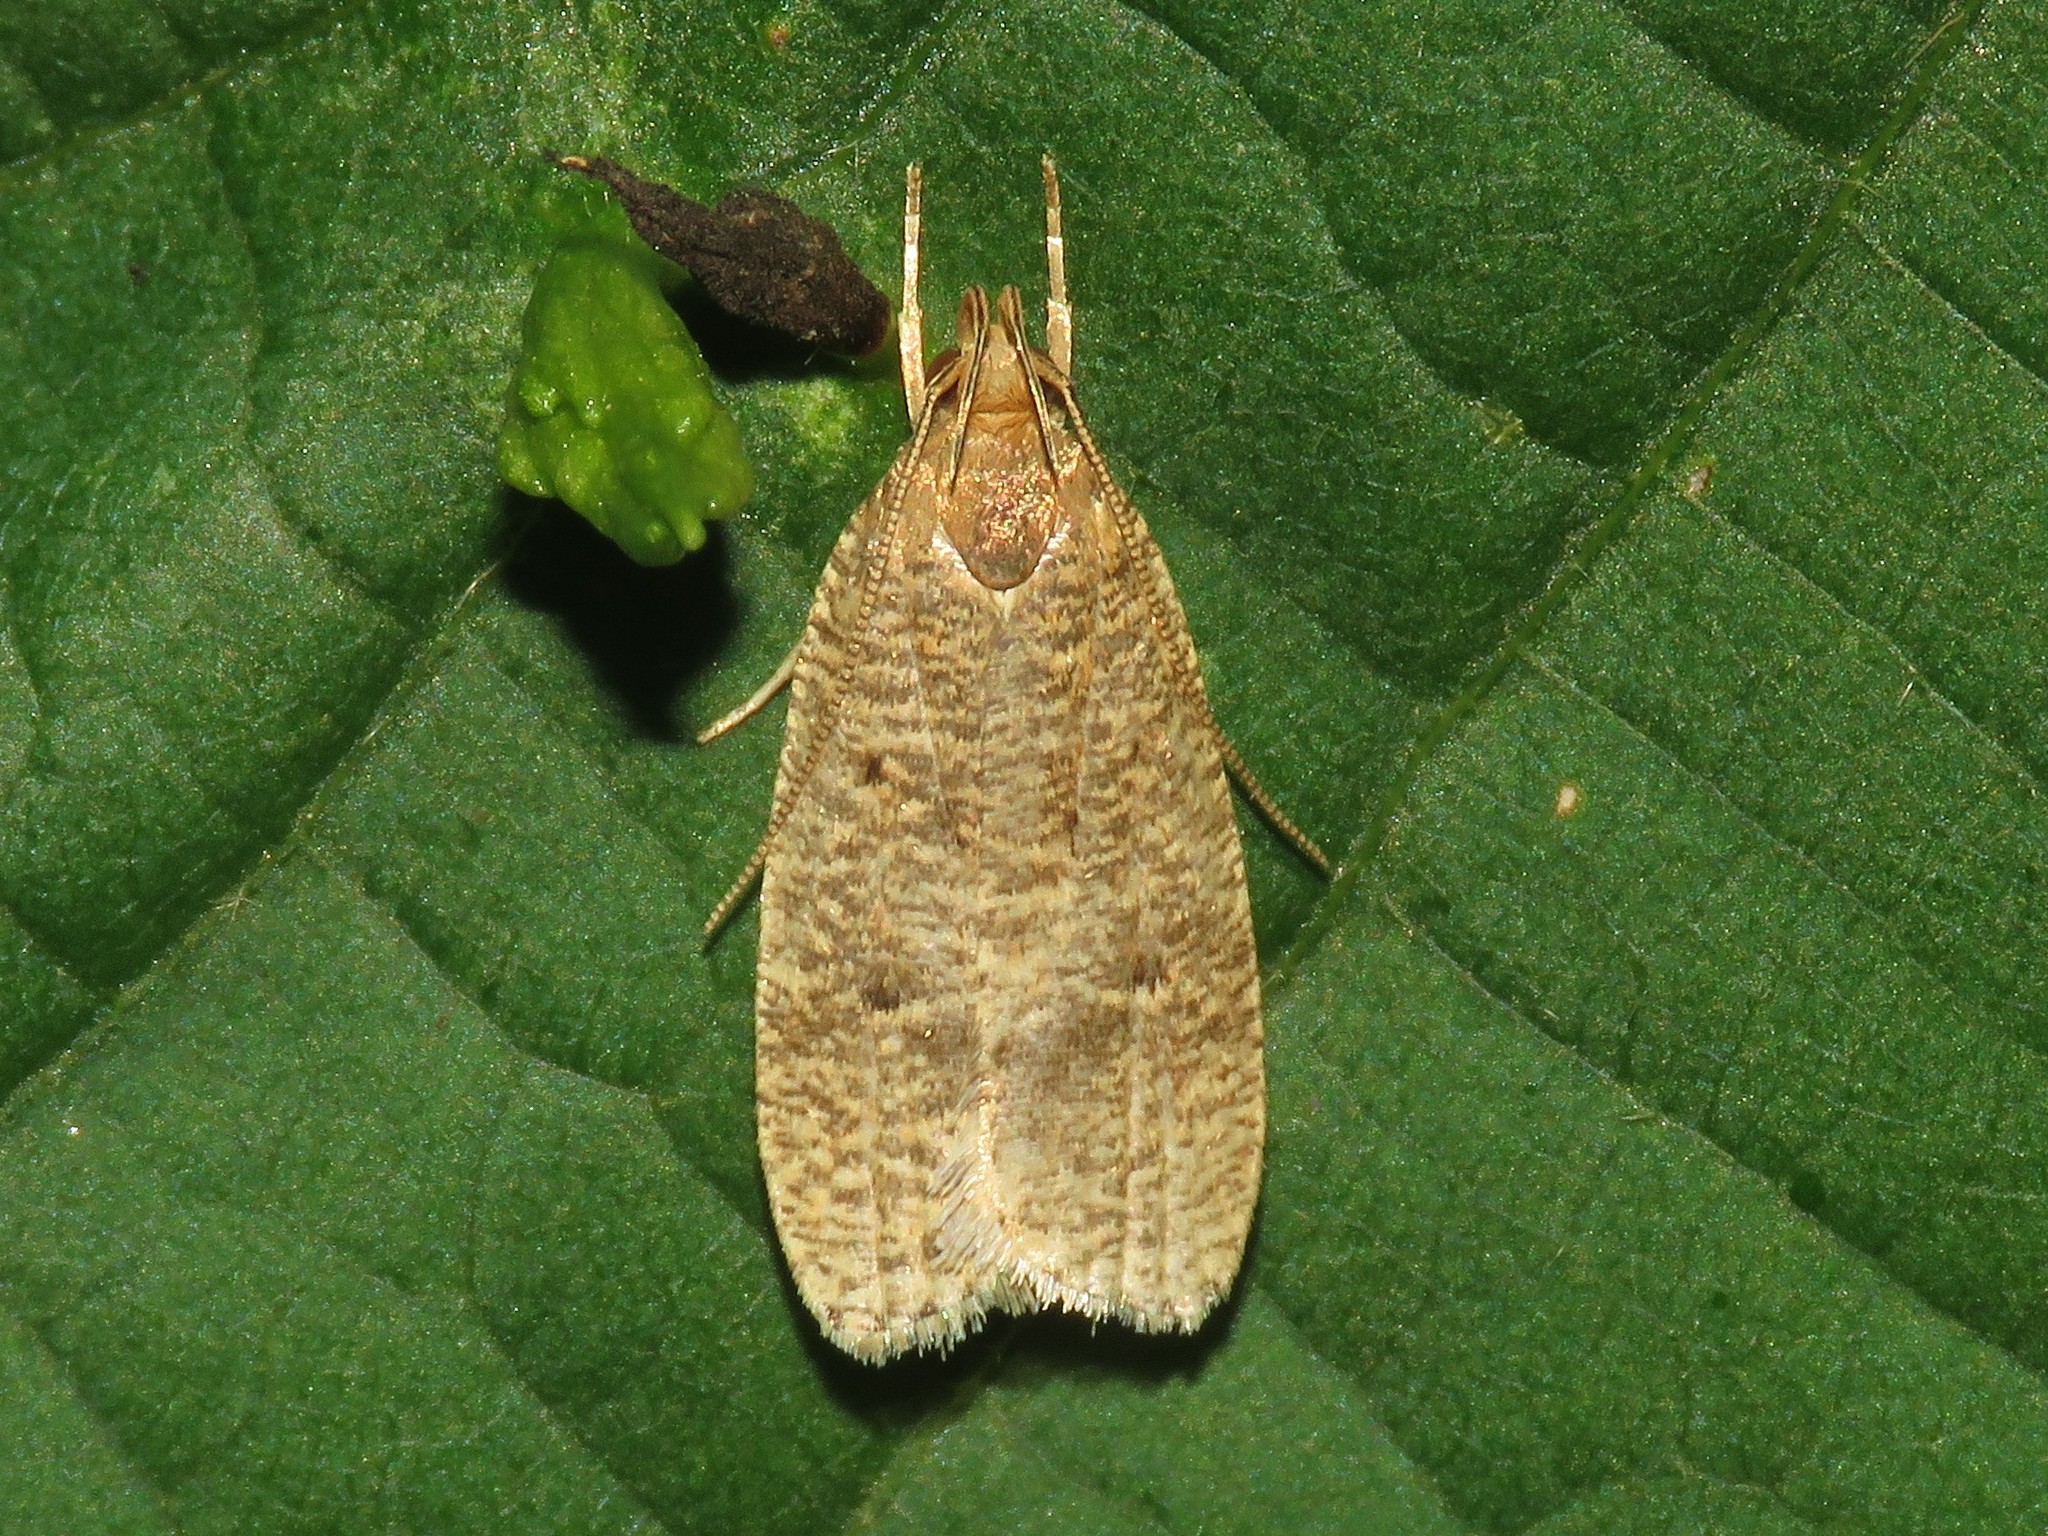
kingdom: Animalia
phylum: Arthropoda
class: Insecta
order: Lepidoptera
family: Depressariidae
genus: Psilocorsis
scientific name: Psilocorsis reflexella
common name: Dotted leaftier moth
